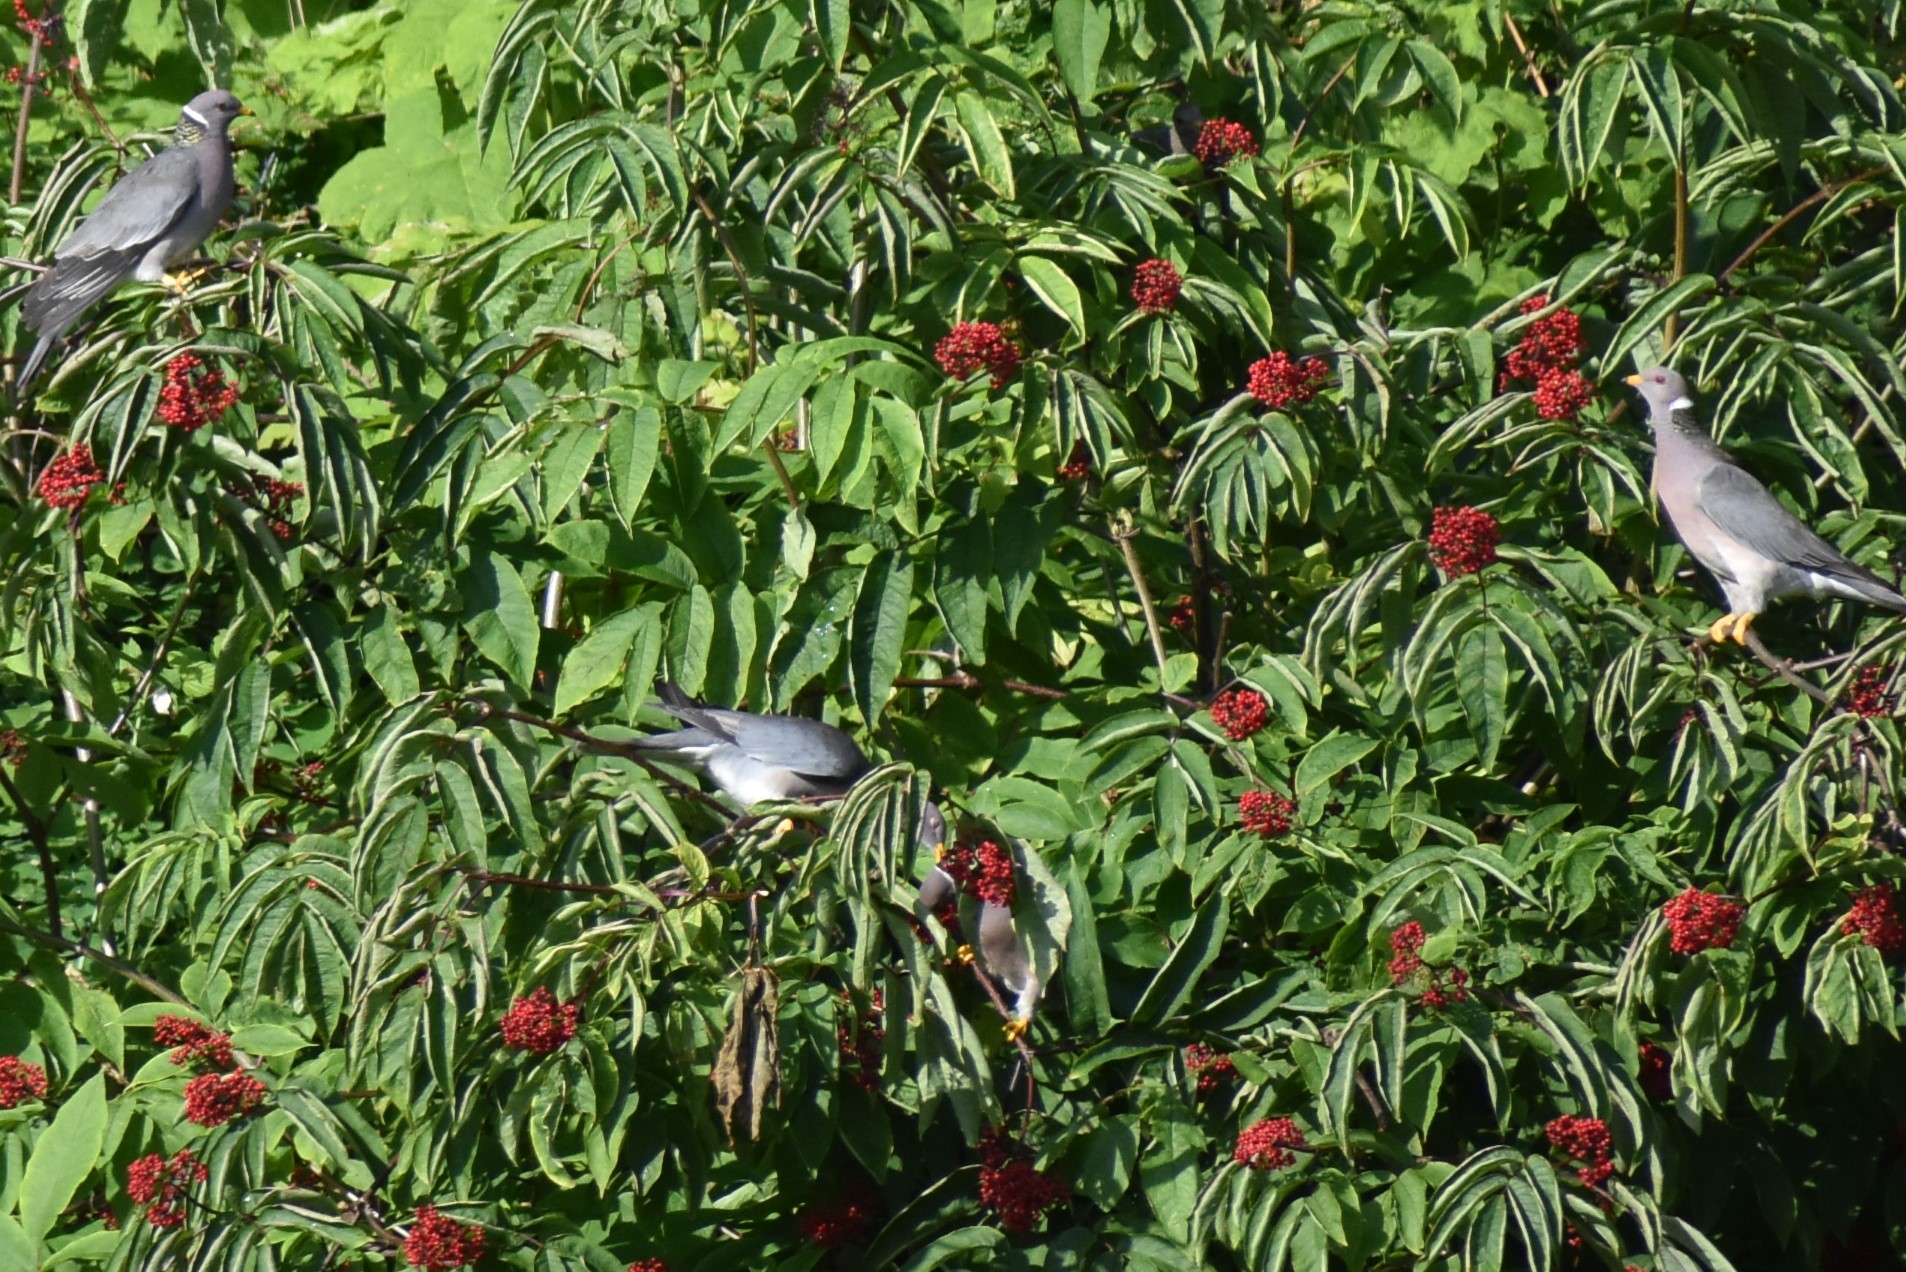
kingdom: Animalia
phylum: Chordata
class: Aves
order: Columbiformes
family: Columbidae
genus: Patagioenas
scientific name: Patagioenas fasciata
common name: Band-tailed pigeon
